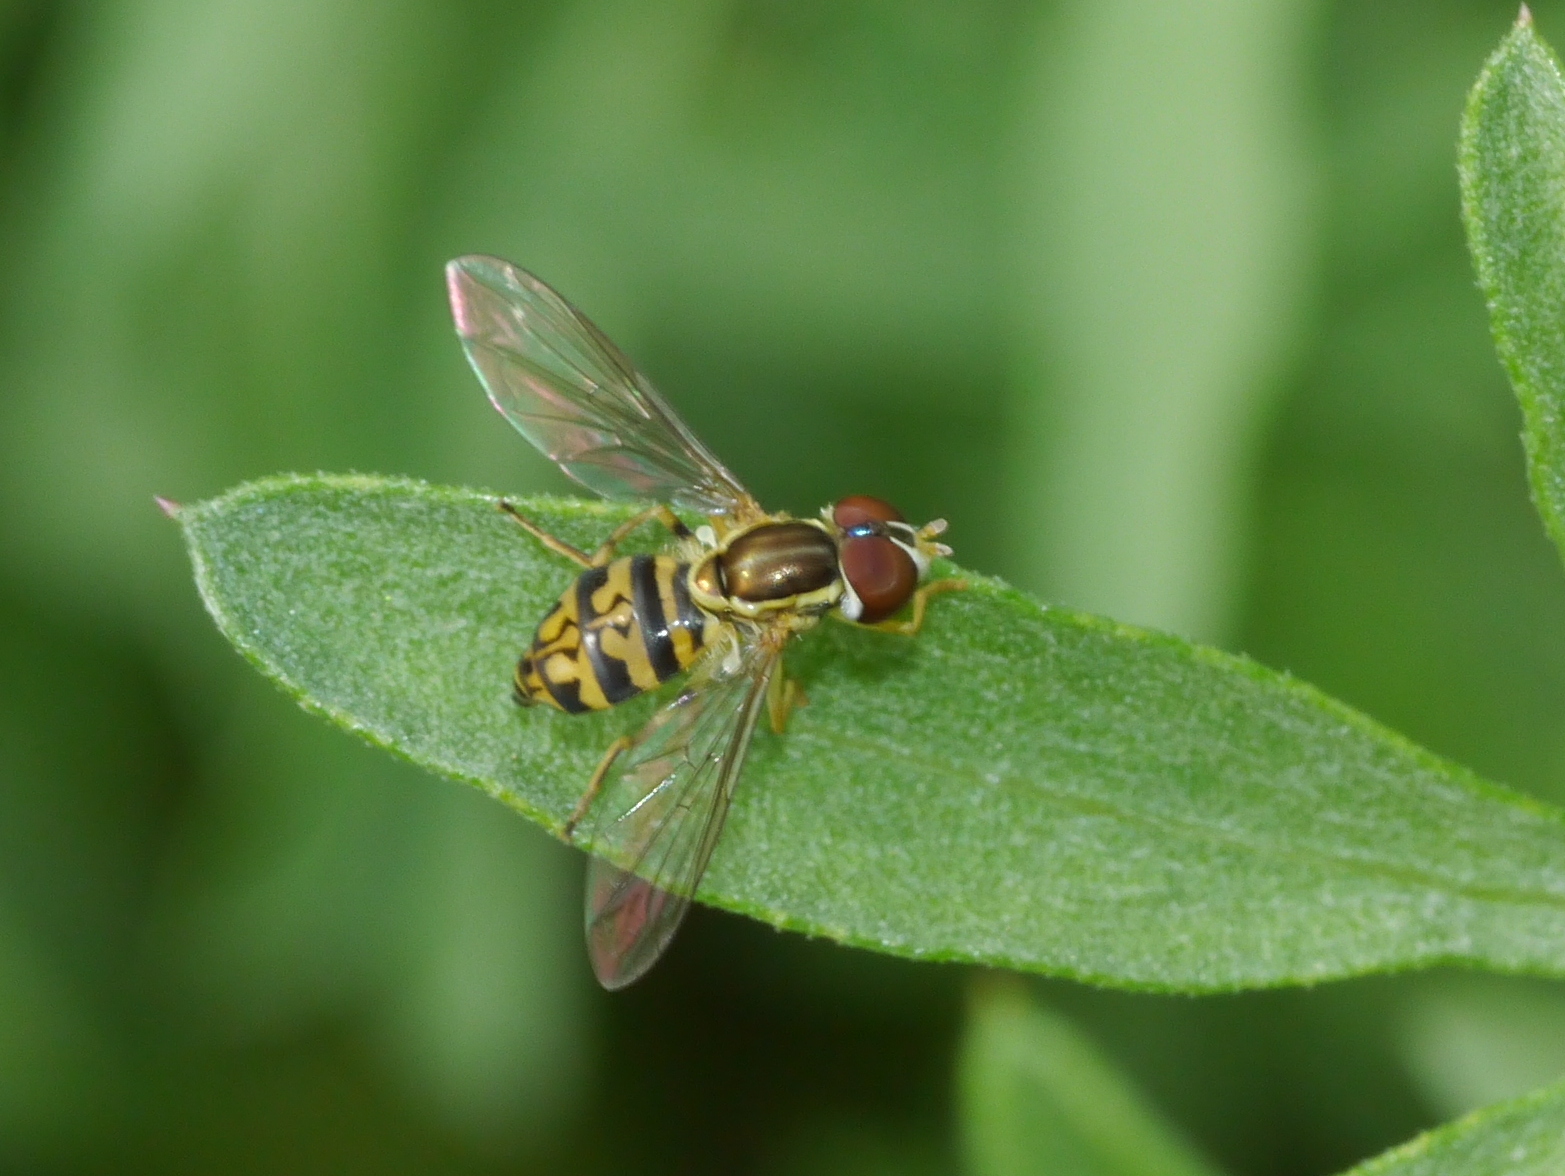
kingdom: Animalia
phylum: Arthropoda
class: Insecta
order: Diptera
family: Syrphidae
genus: Toxomerus
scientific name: Toxomerus geminatus
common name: Eastern calligrapher
